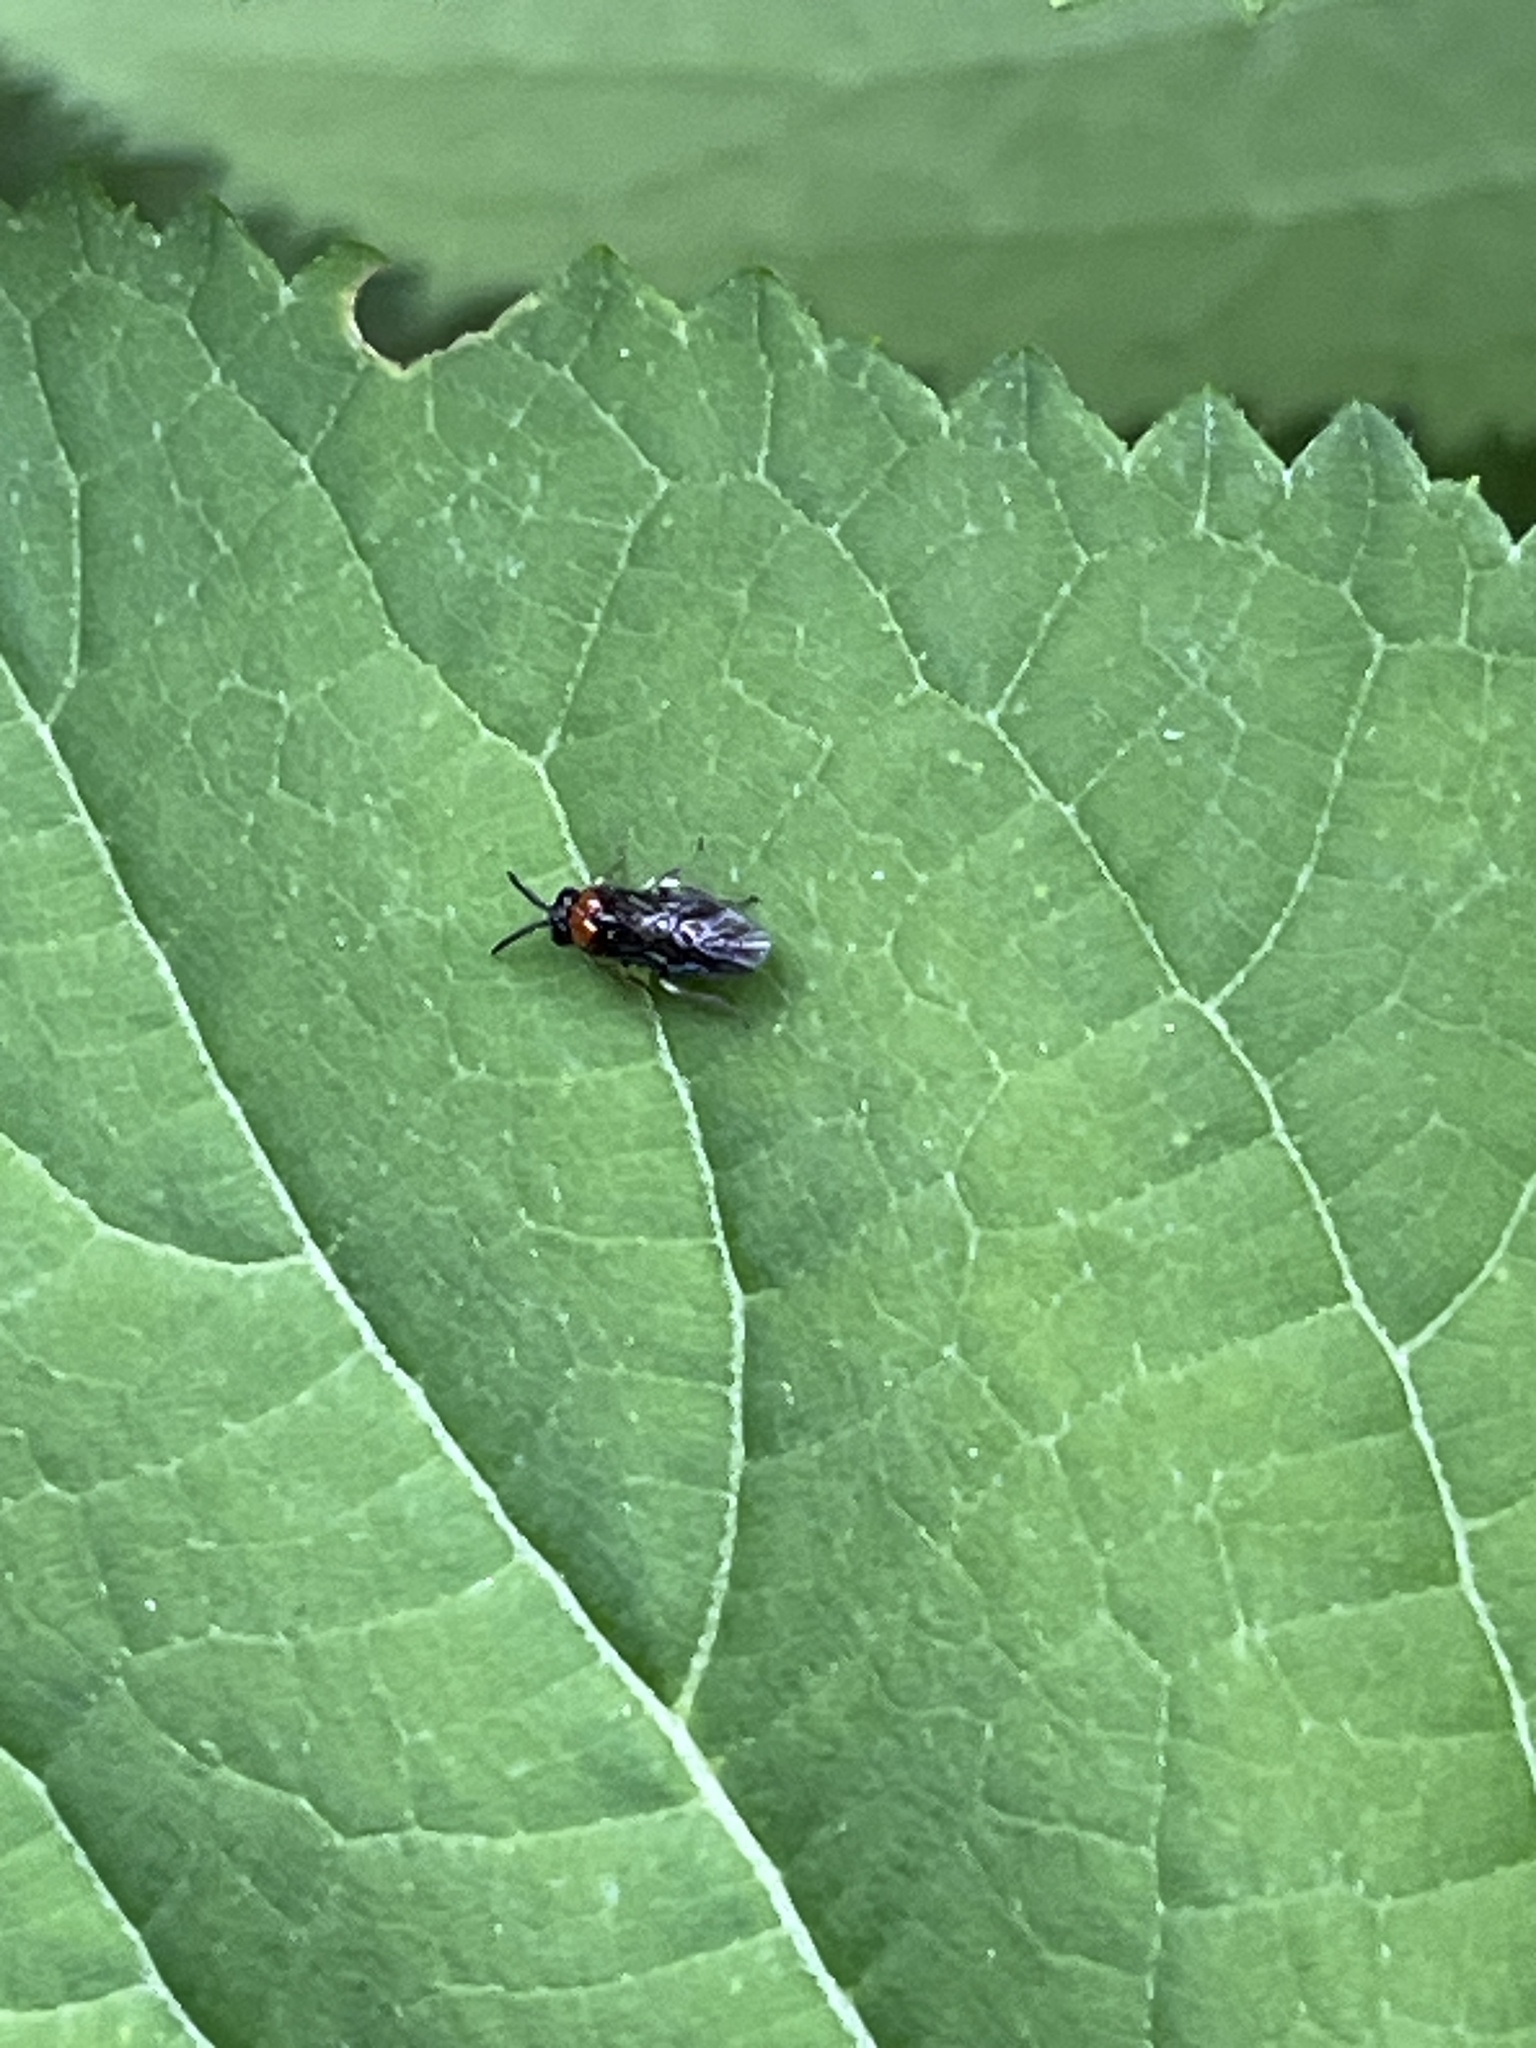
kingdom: Animalia
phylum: Arthropoda
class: Insecta
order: Hymenoptera
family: Tenthredinidae
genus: Eutomostethus
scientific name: Eutomostethus ephippium
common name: Tenthredid wasp
